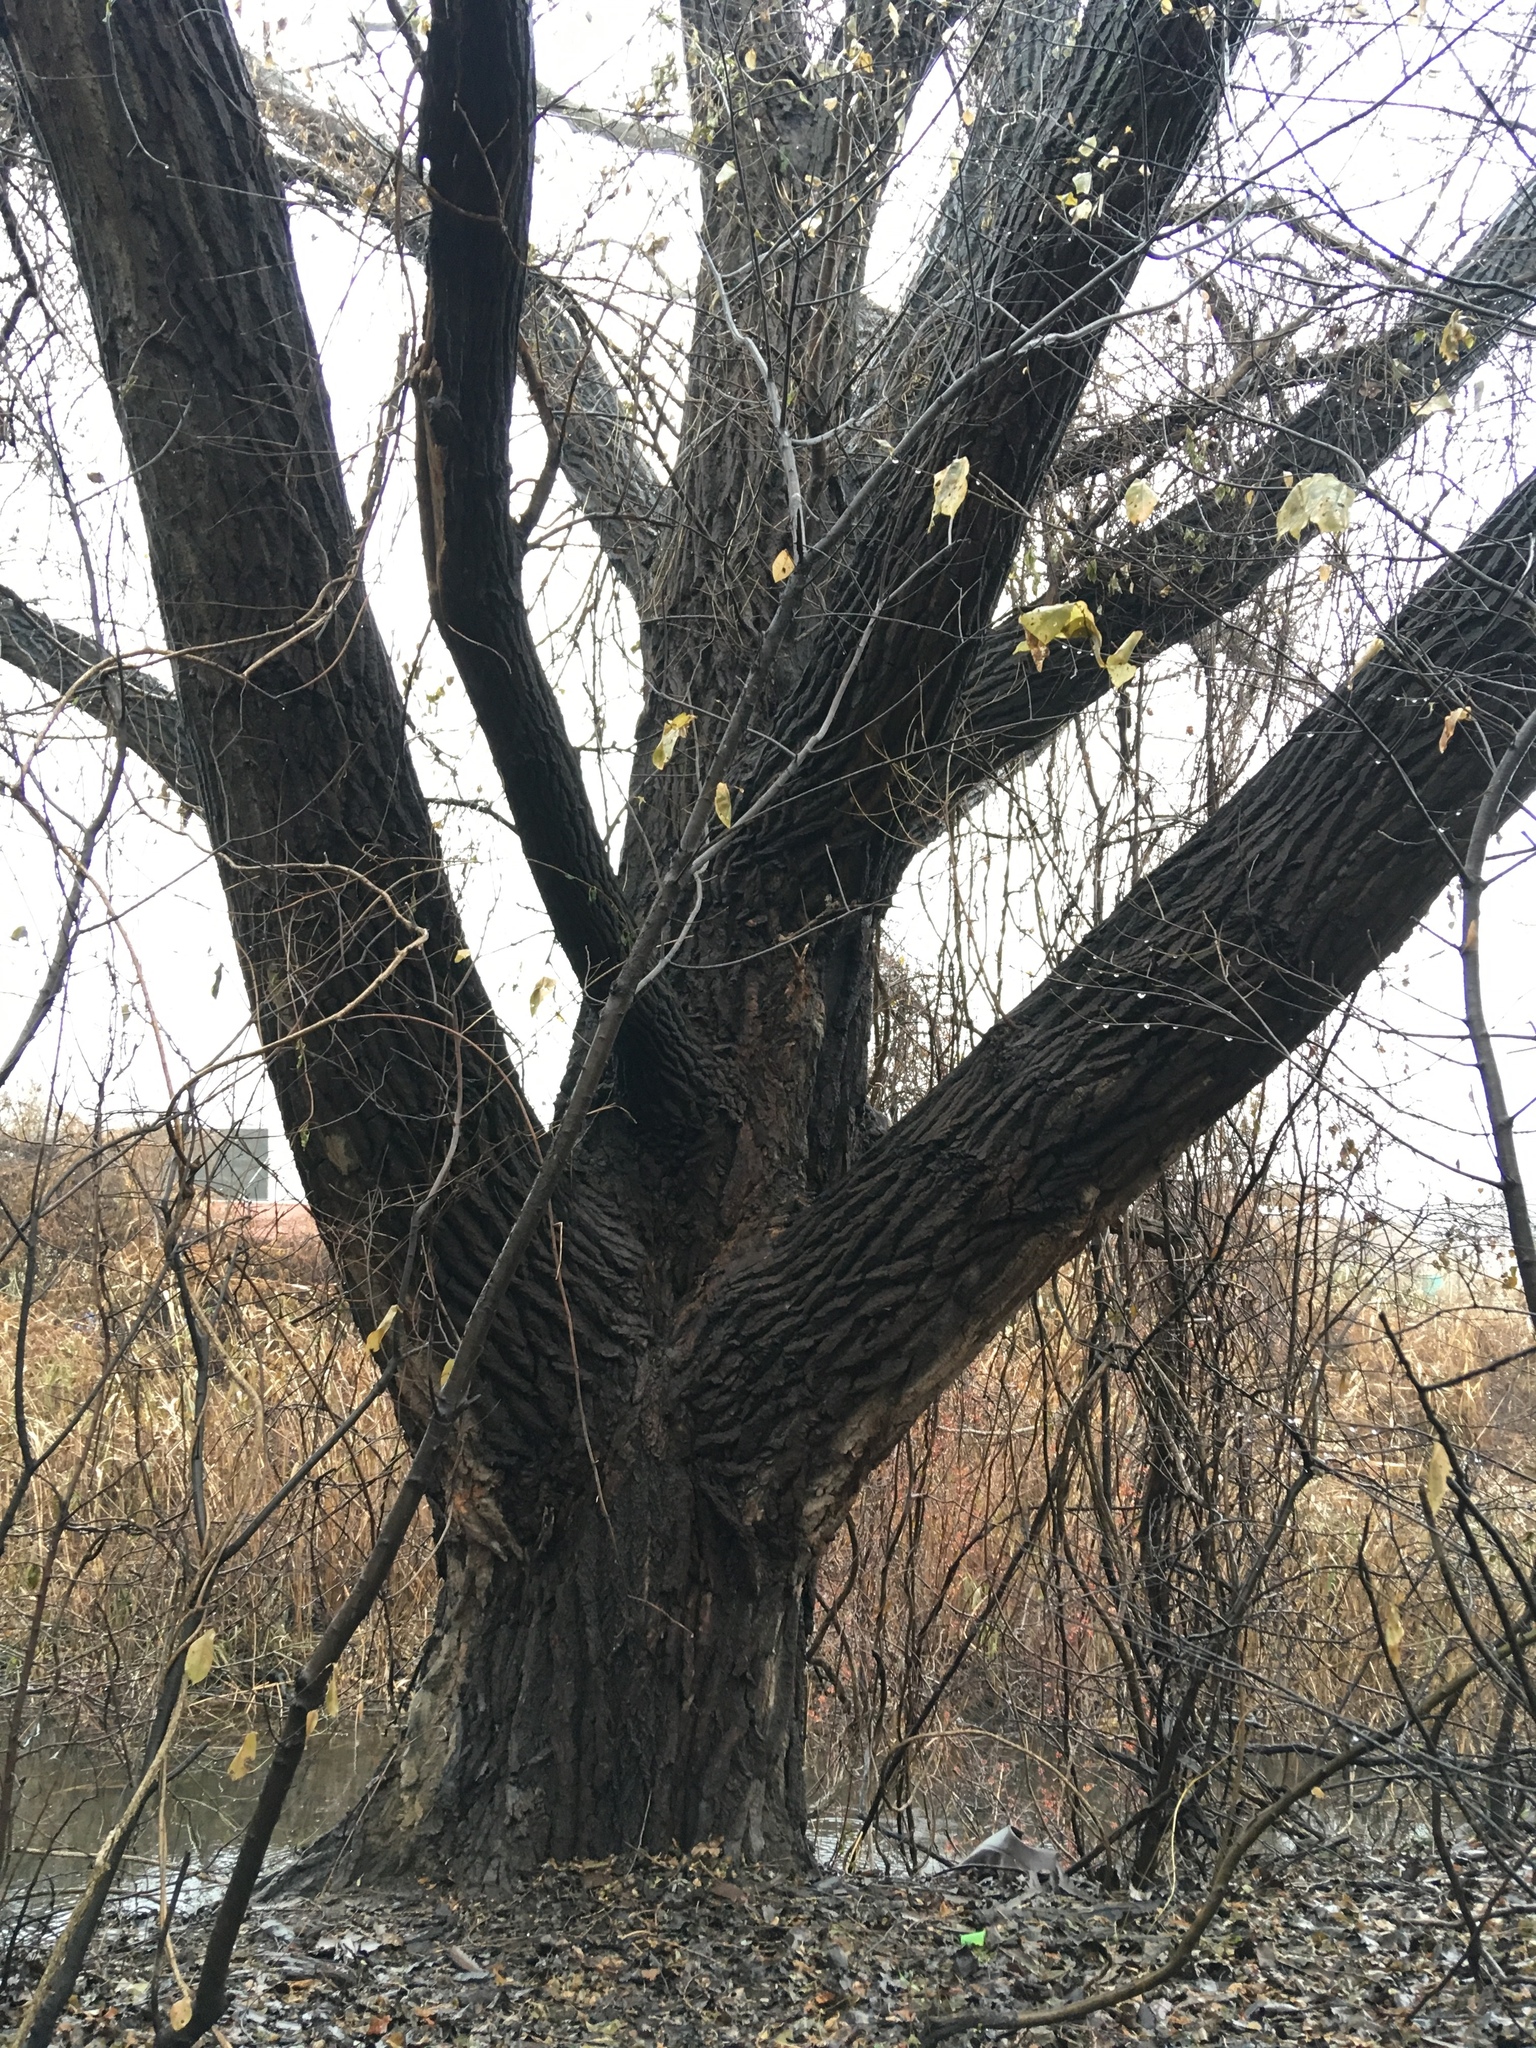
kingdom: Plantae
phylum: Tracheophyta
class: Magnoliopsida
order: Malpighiales
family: Salicaceae
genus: Populus
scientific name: Populus deltoides
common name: Eastern cottonwood
